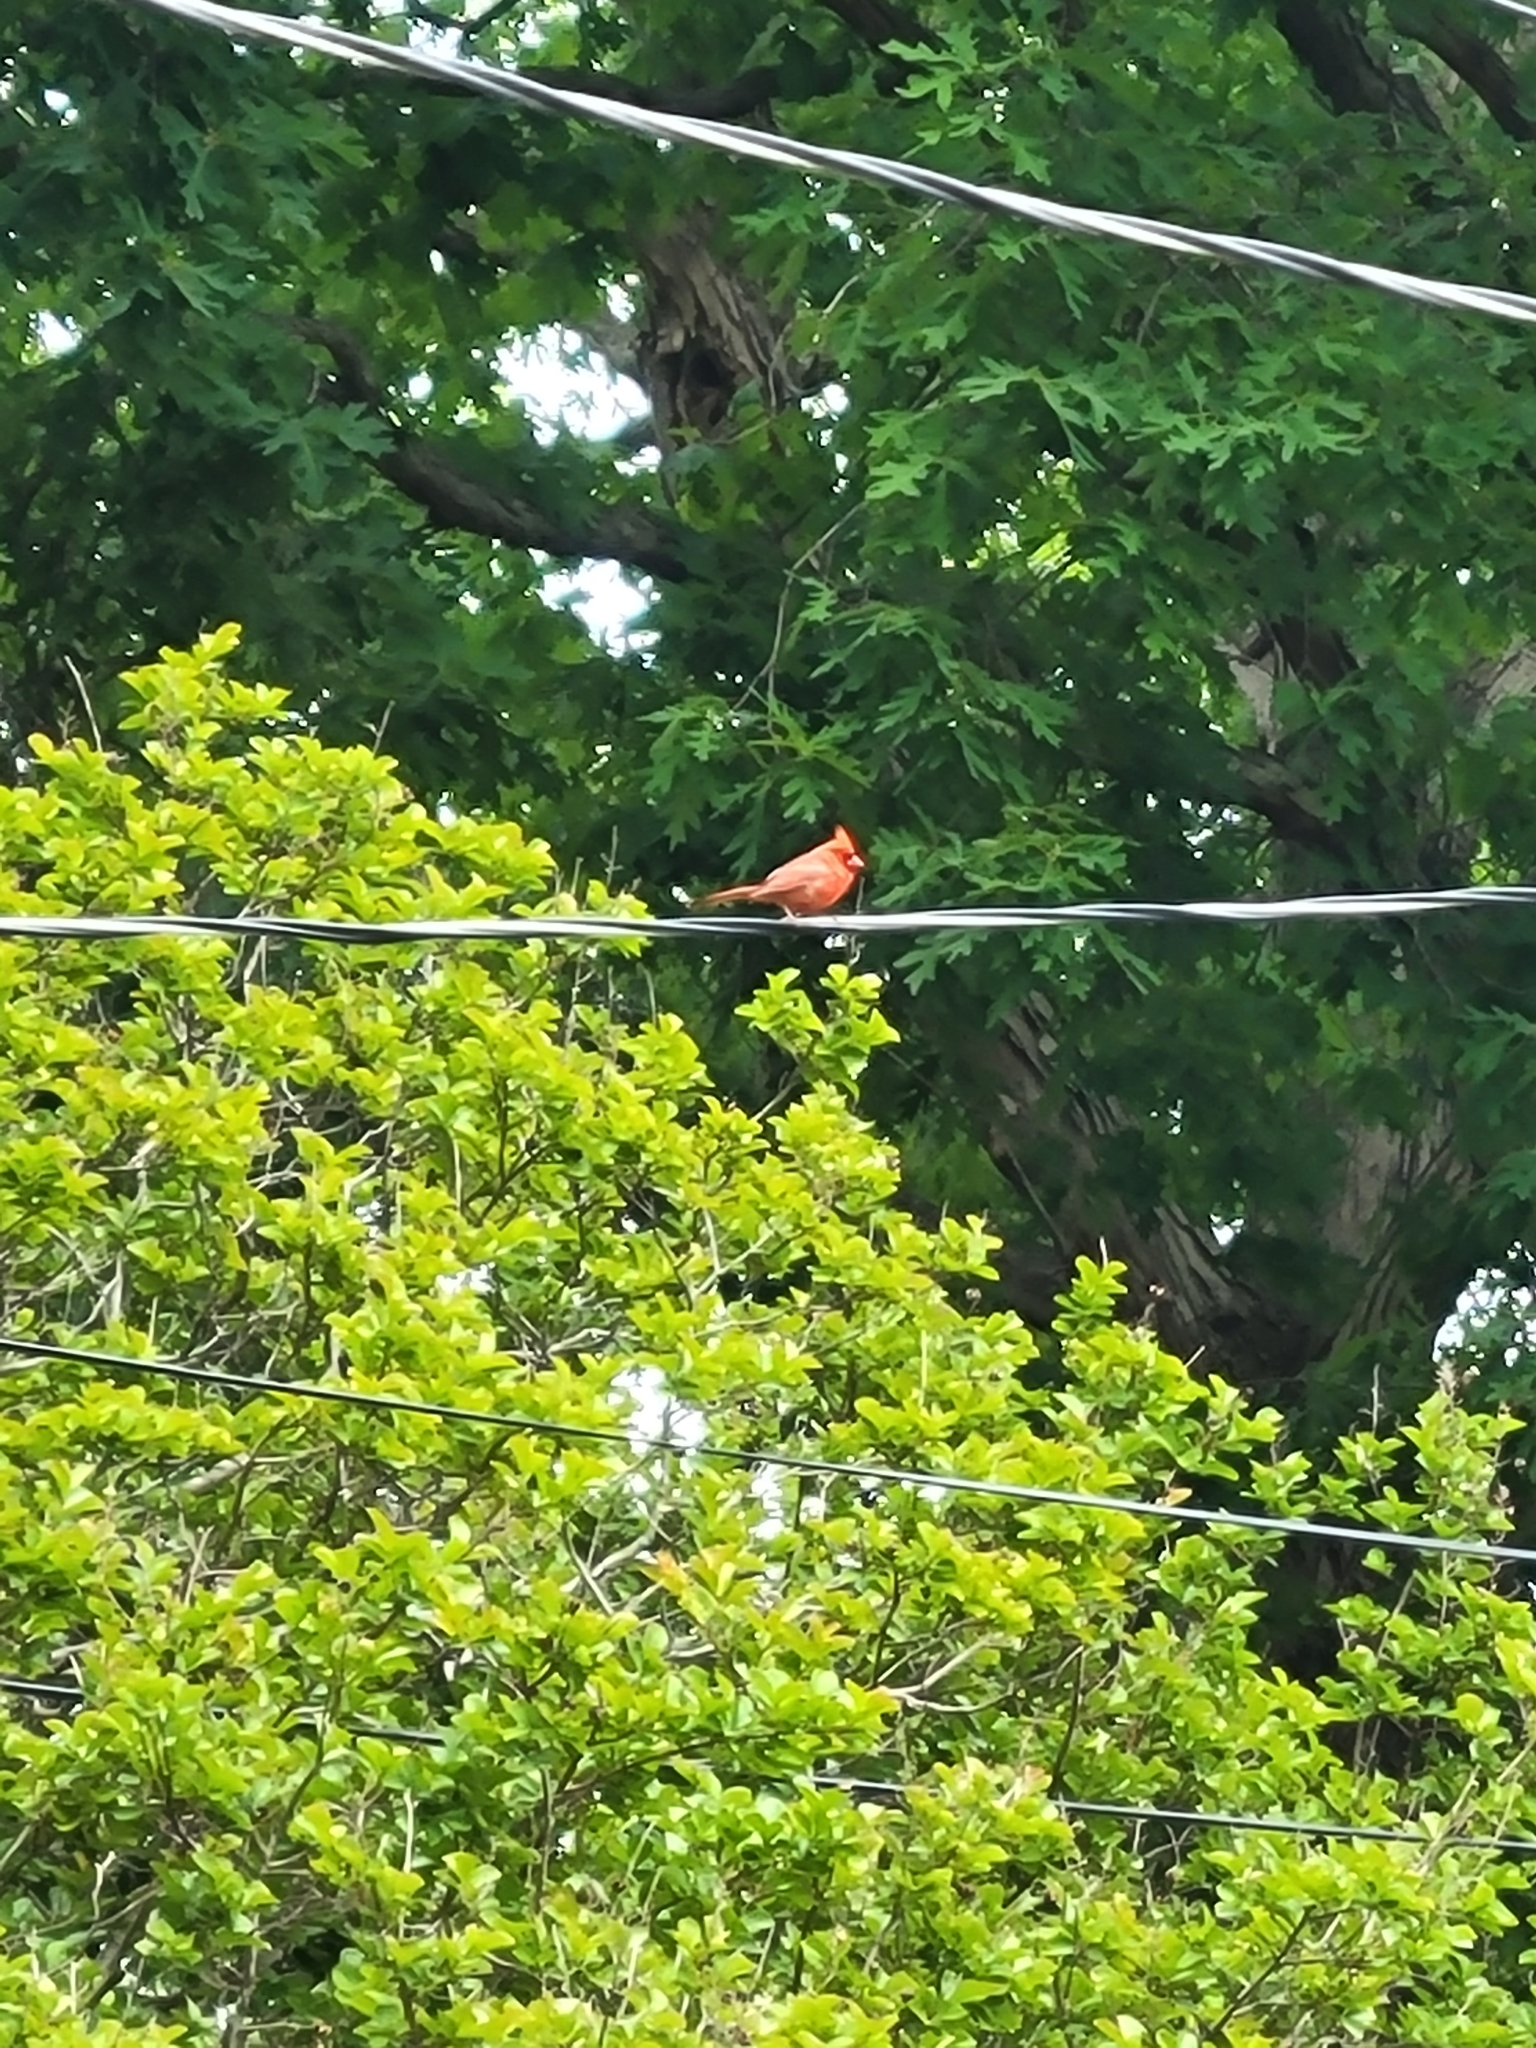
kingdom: Animalia
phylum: Chordata
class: Aves
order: Passeriformes
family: Cardinalidae
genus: Cardinalis
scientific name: Cardinalis cardinalis
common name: Northern cardinal
